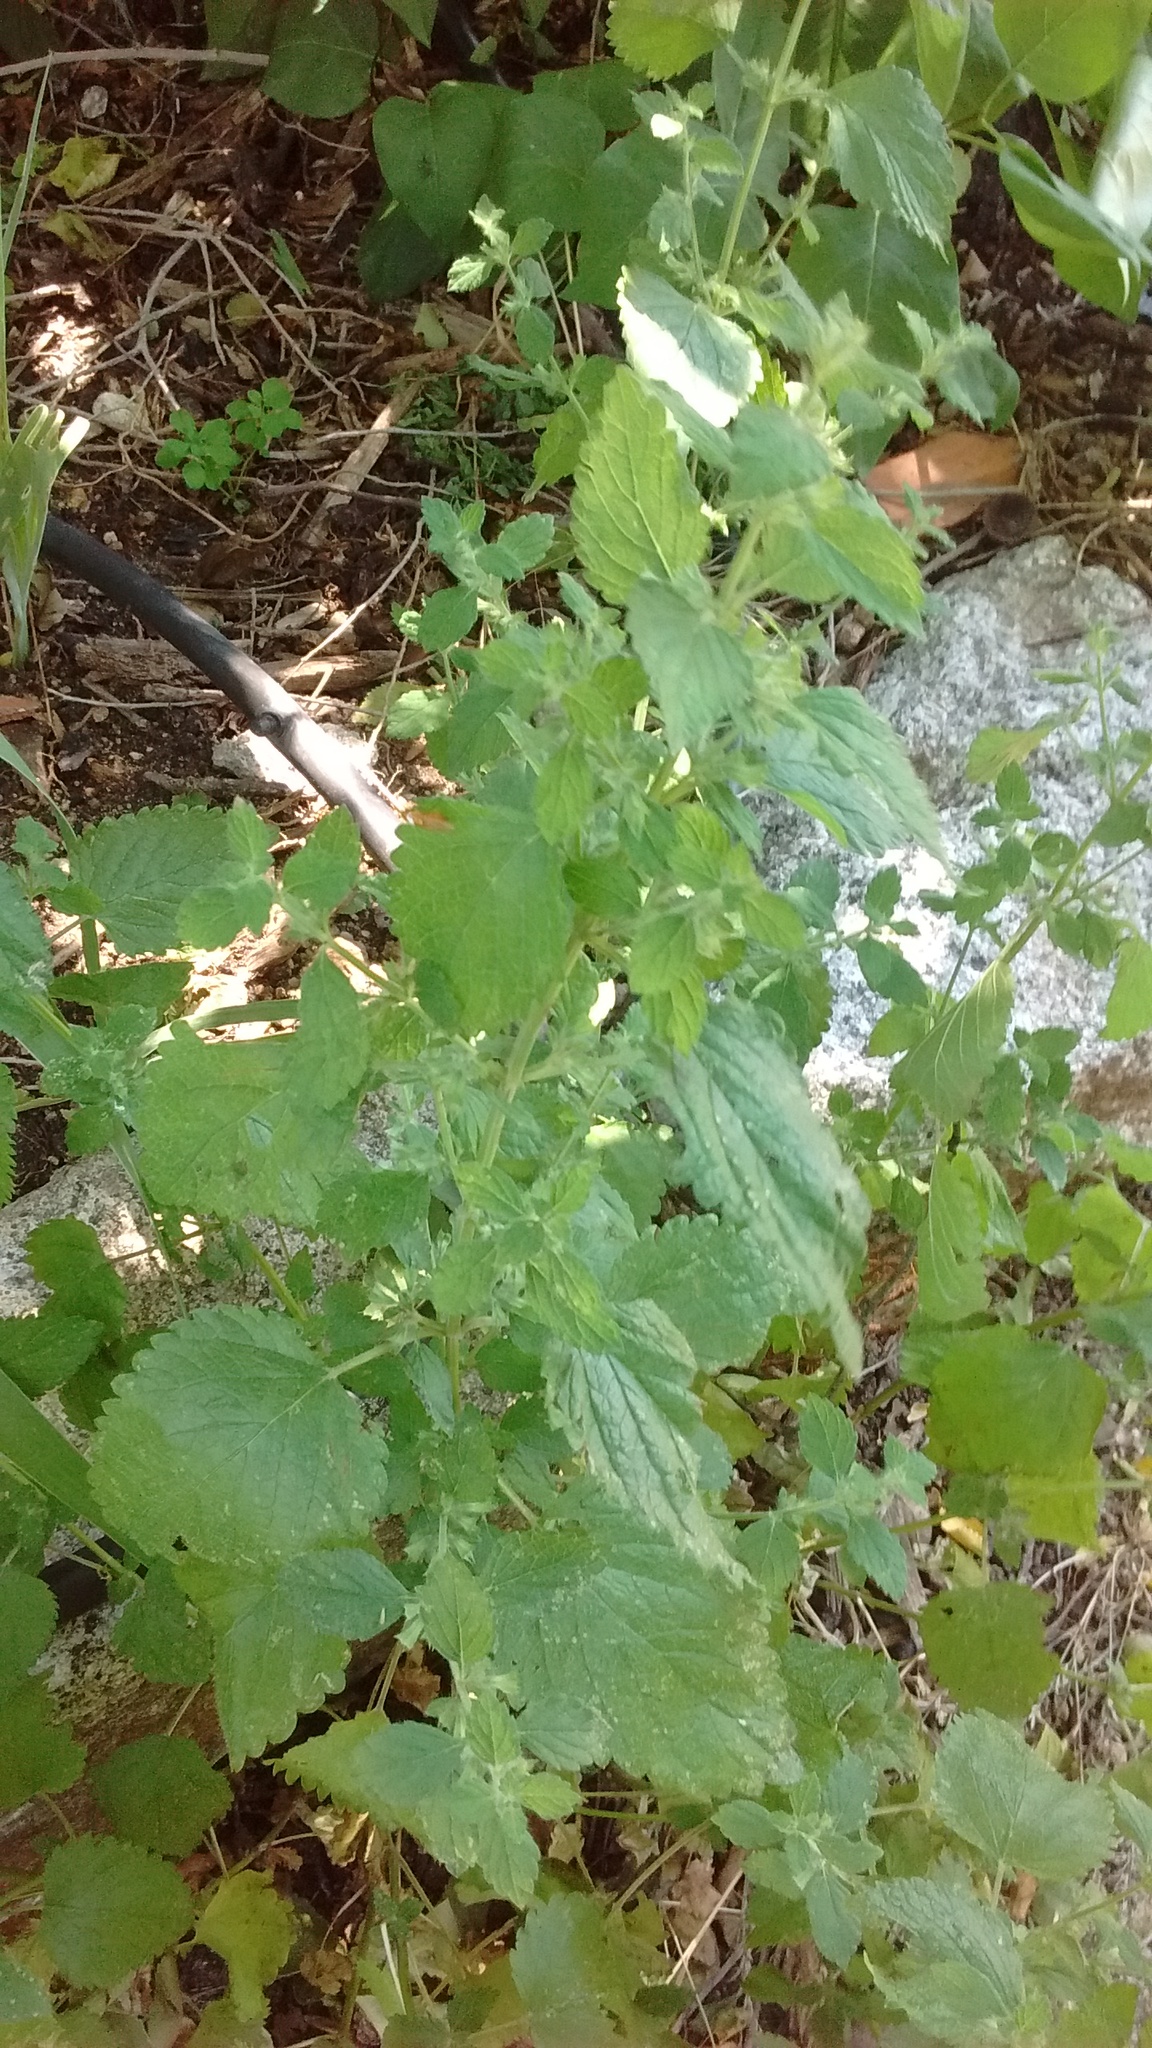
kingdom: Plantae
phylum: Tracheophyta
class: Magnoliopsida
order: Lamiales
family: Lamiaceae
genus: Melissa
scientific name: Melissa officinalis
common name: Balm
